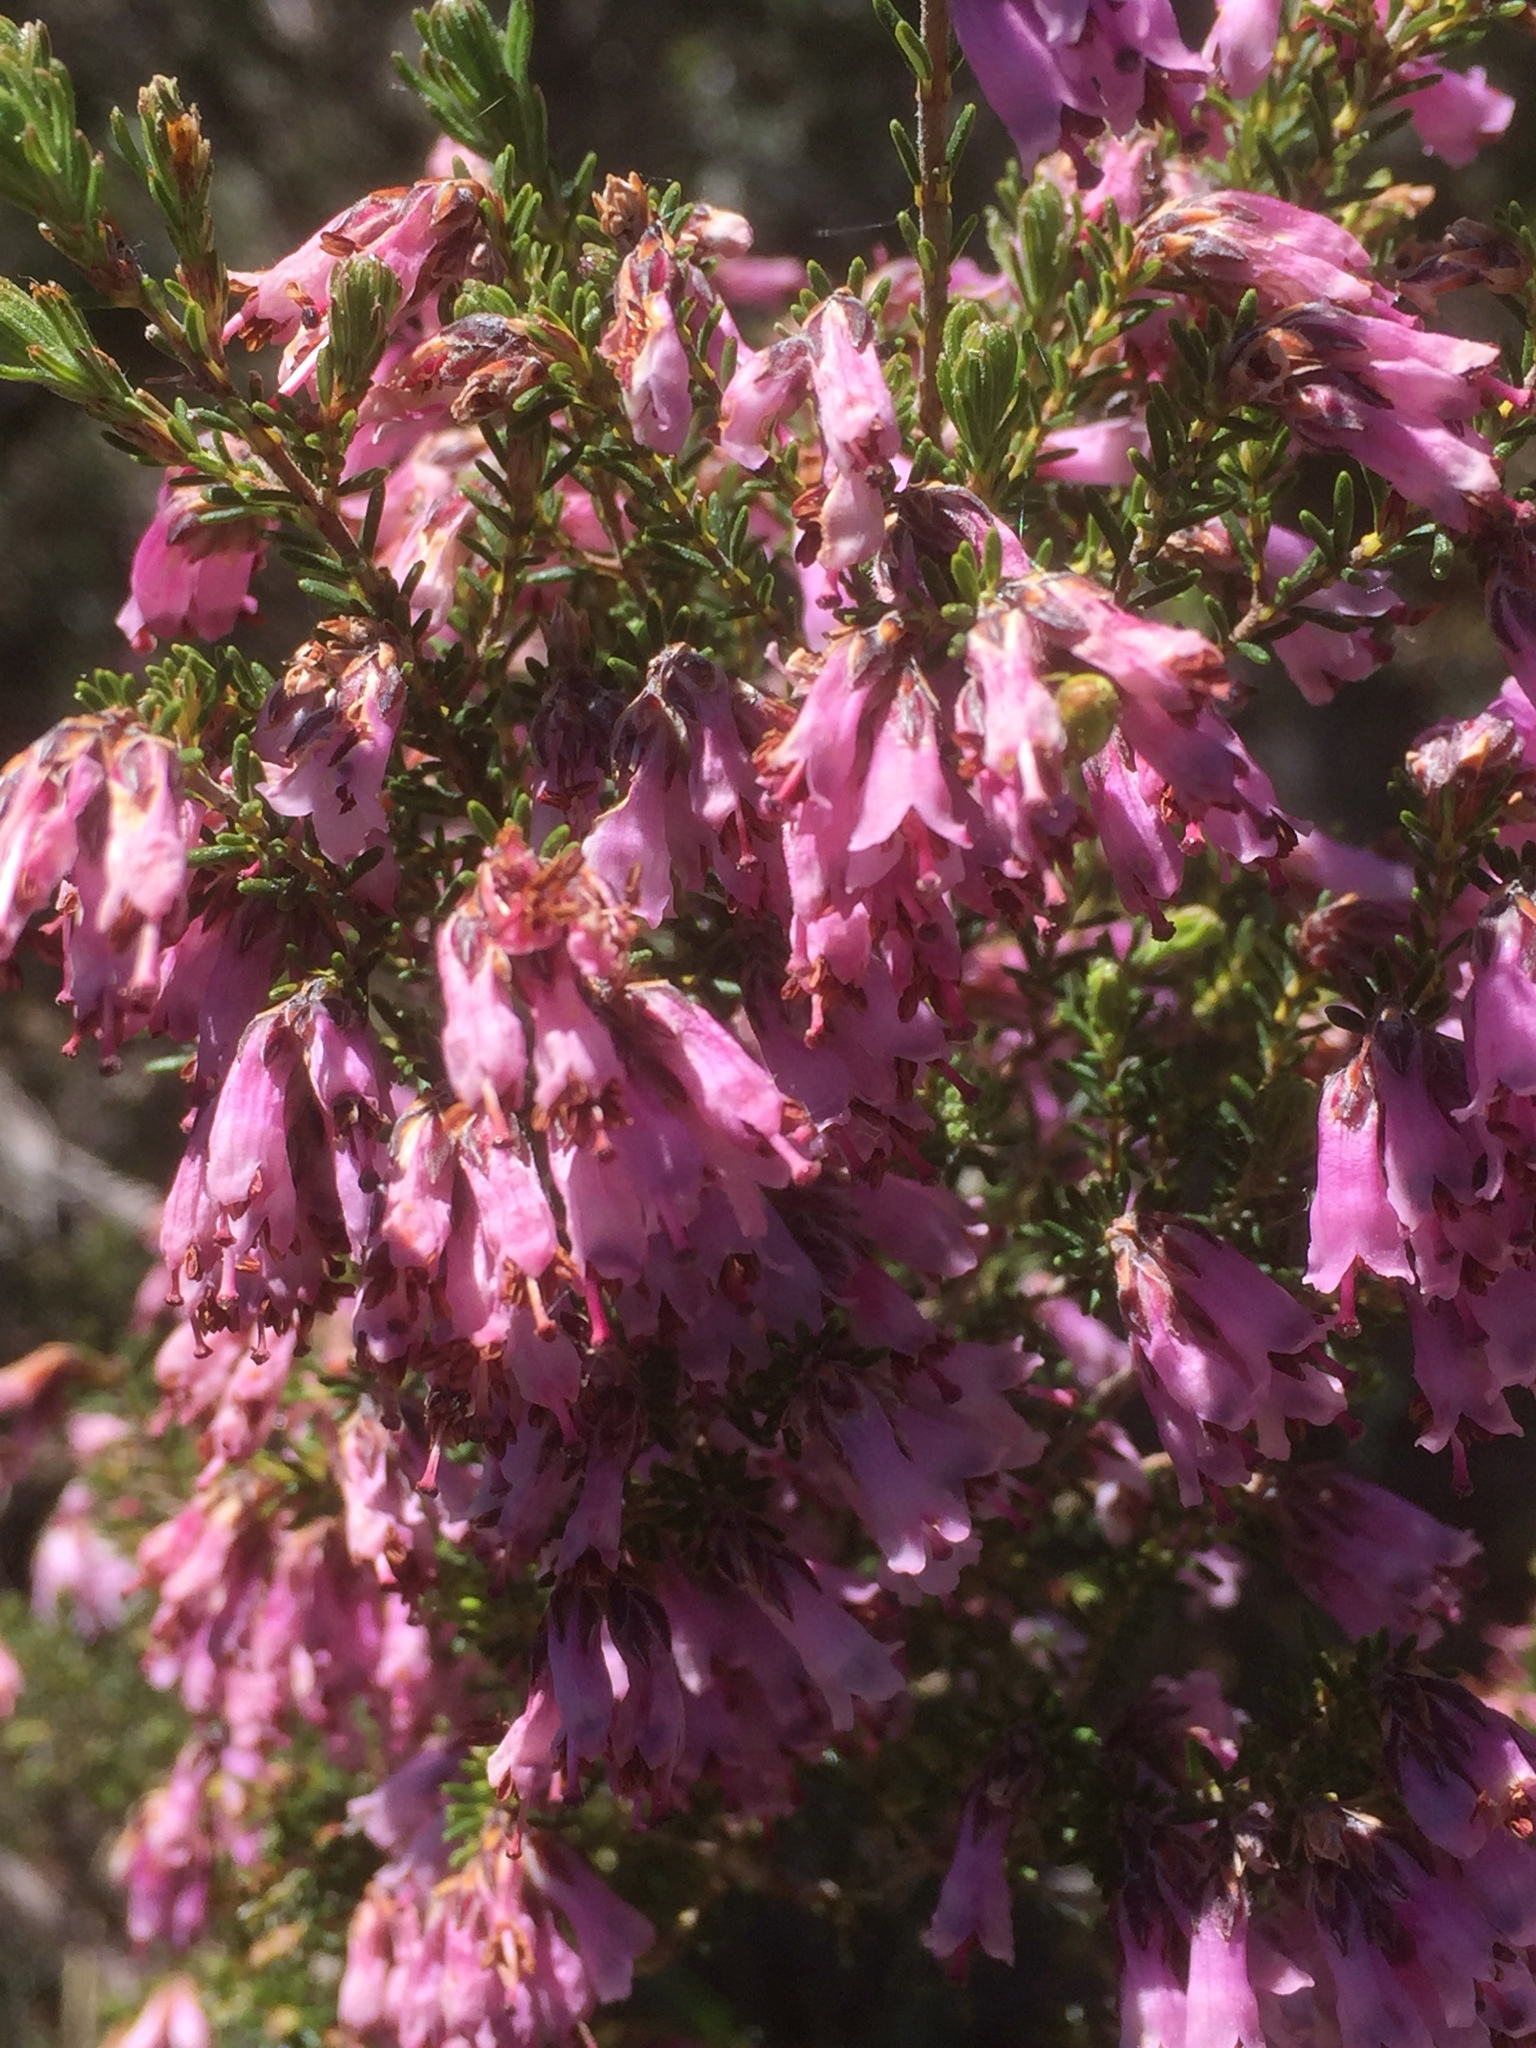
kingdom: Plantae
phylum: Tracheophyta
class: Magnoliopsida
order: Ericales
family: Ericaceae
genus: Erica
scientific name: Erica australis
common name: Spanish heath
